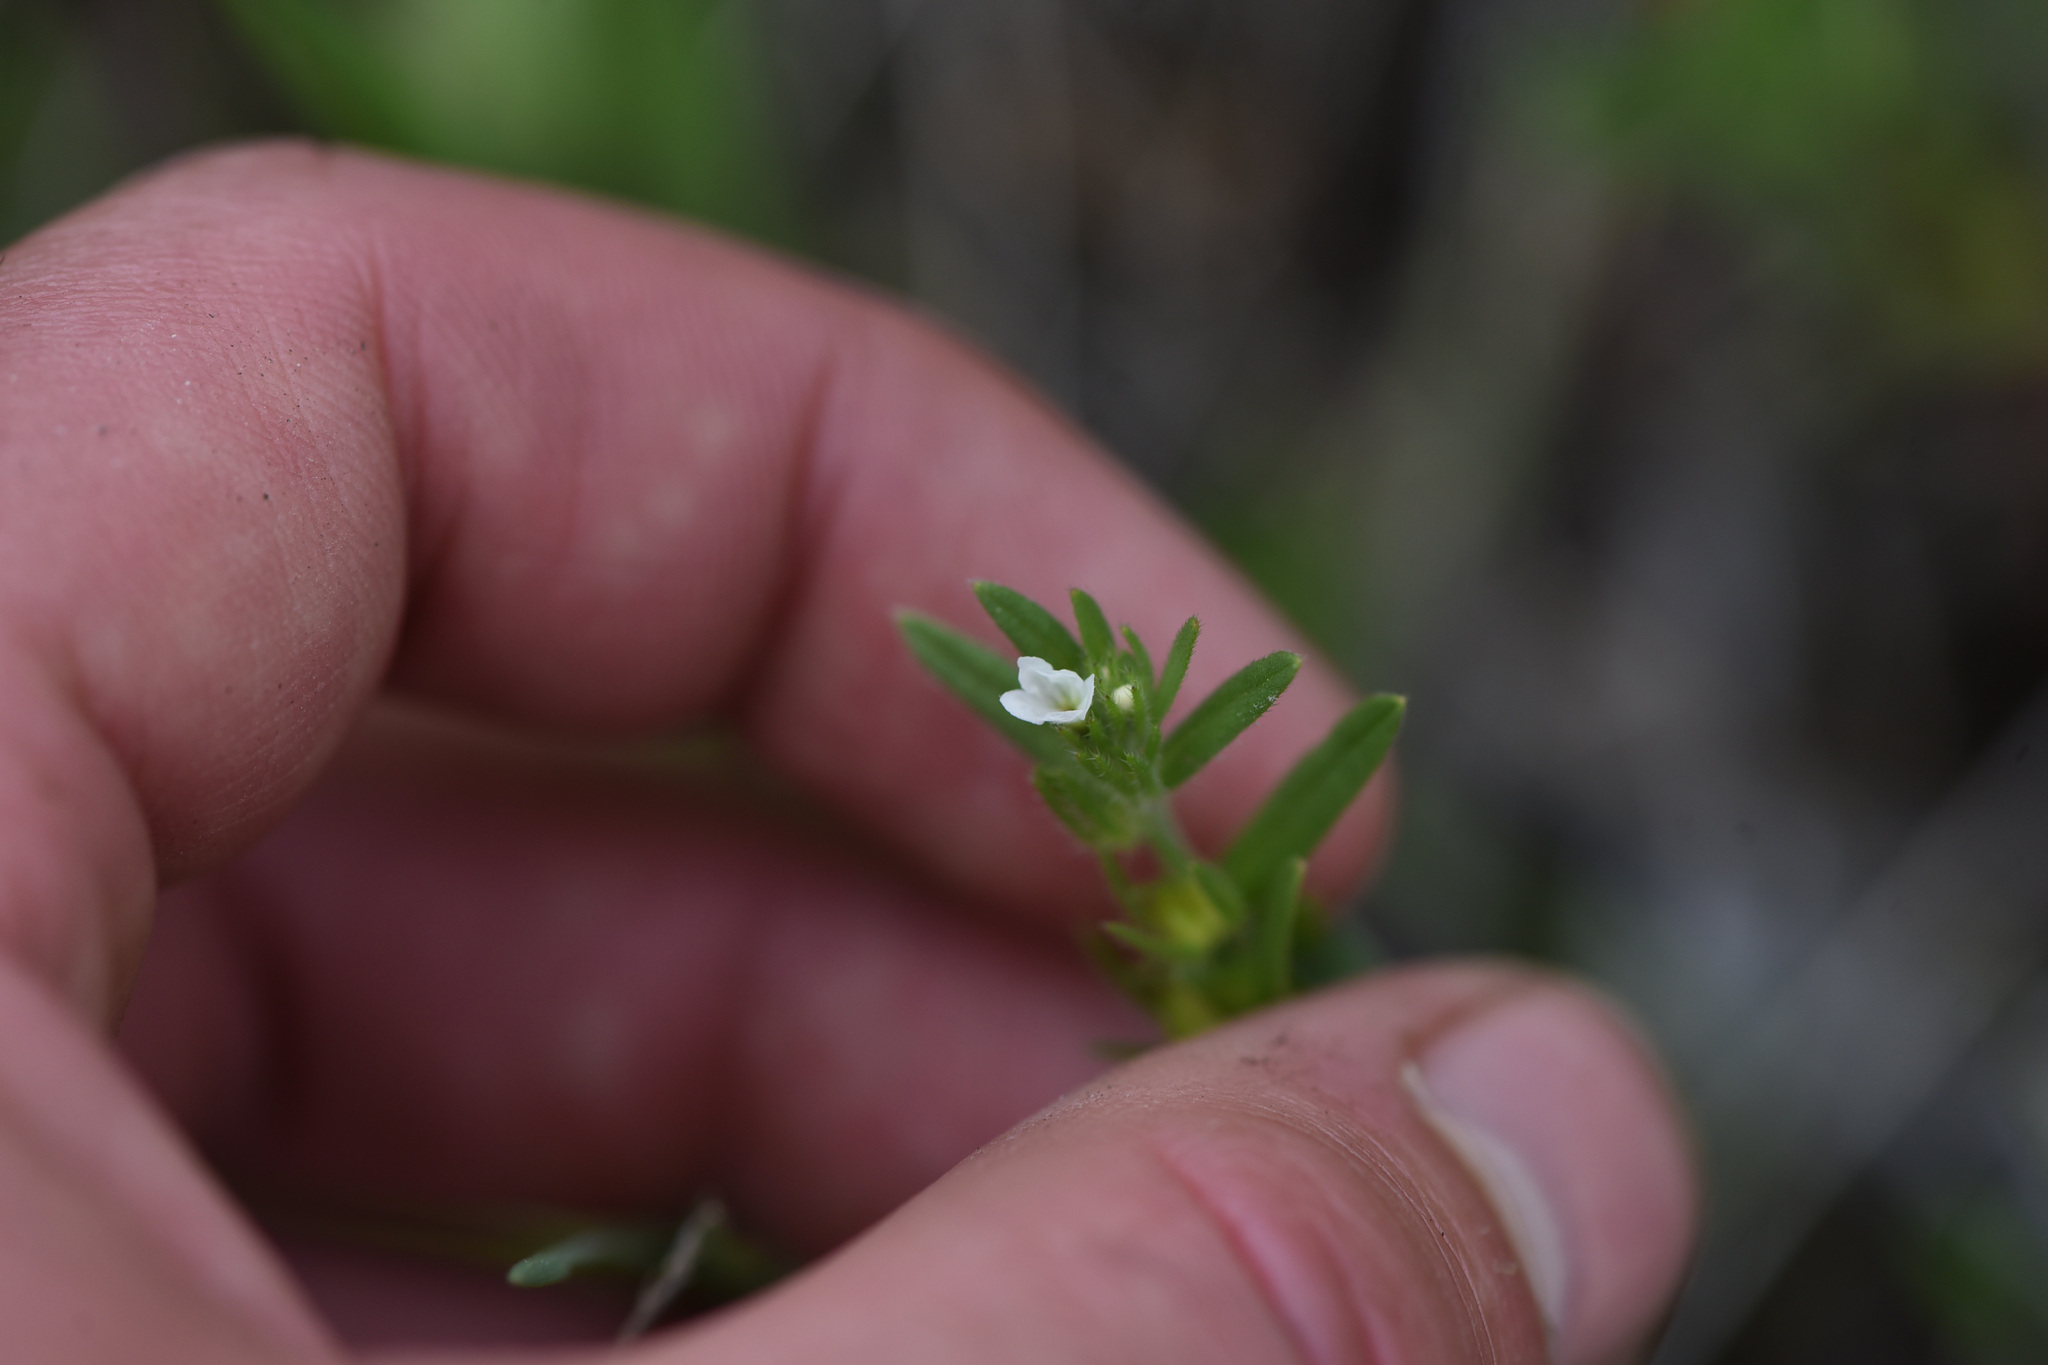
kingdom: Plantae
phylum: Tracheophyta
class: Magnoliopsida
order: Boraginales
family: Boraginaceae
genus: Buglossoides
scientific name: Buglossoides arvensis
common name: Corn gromwell
